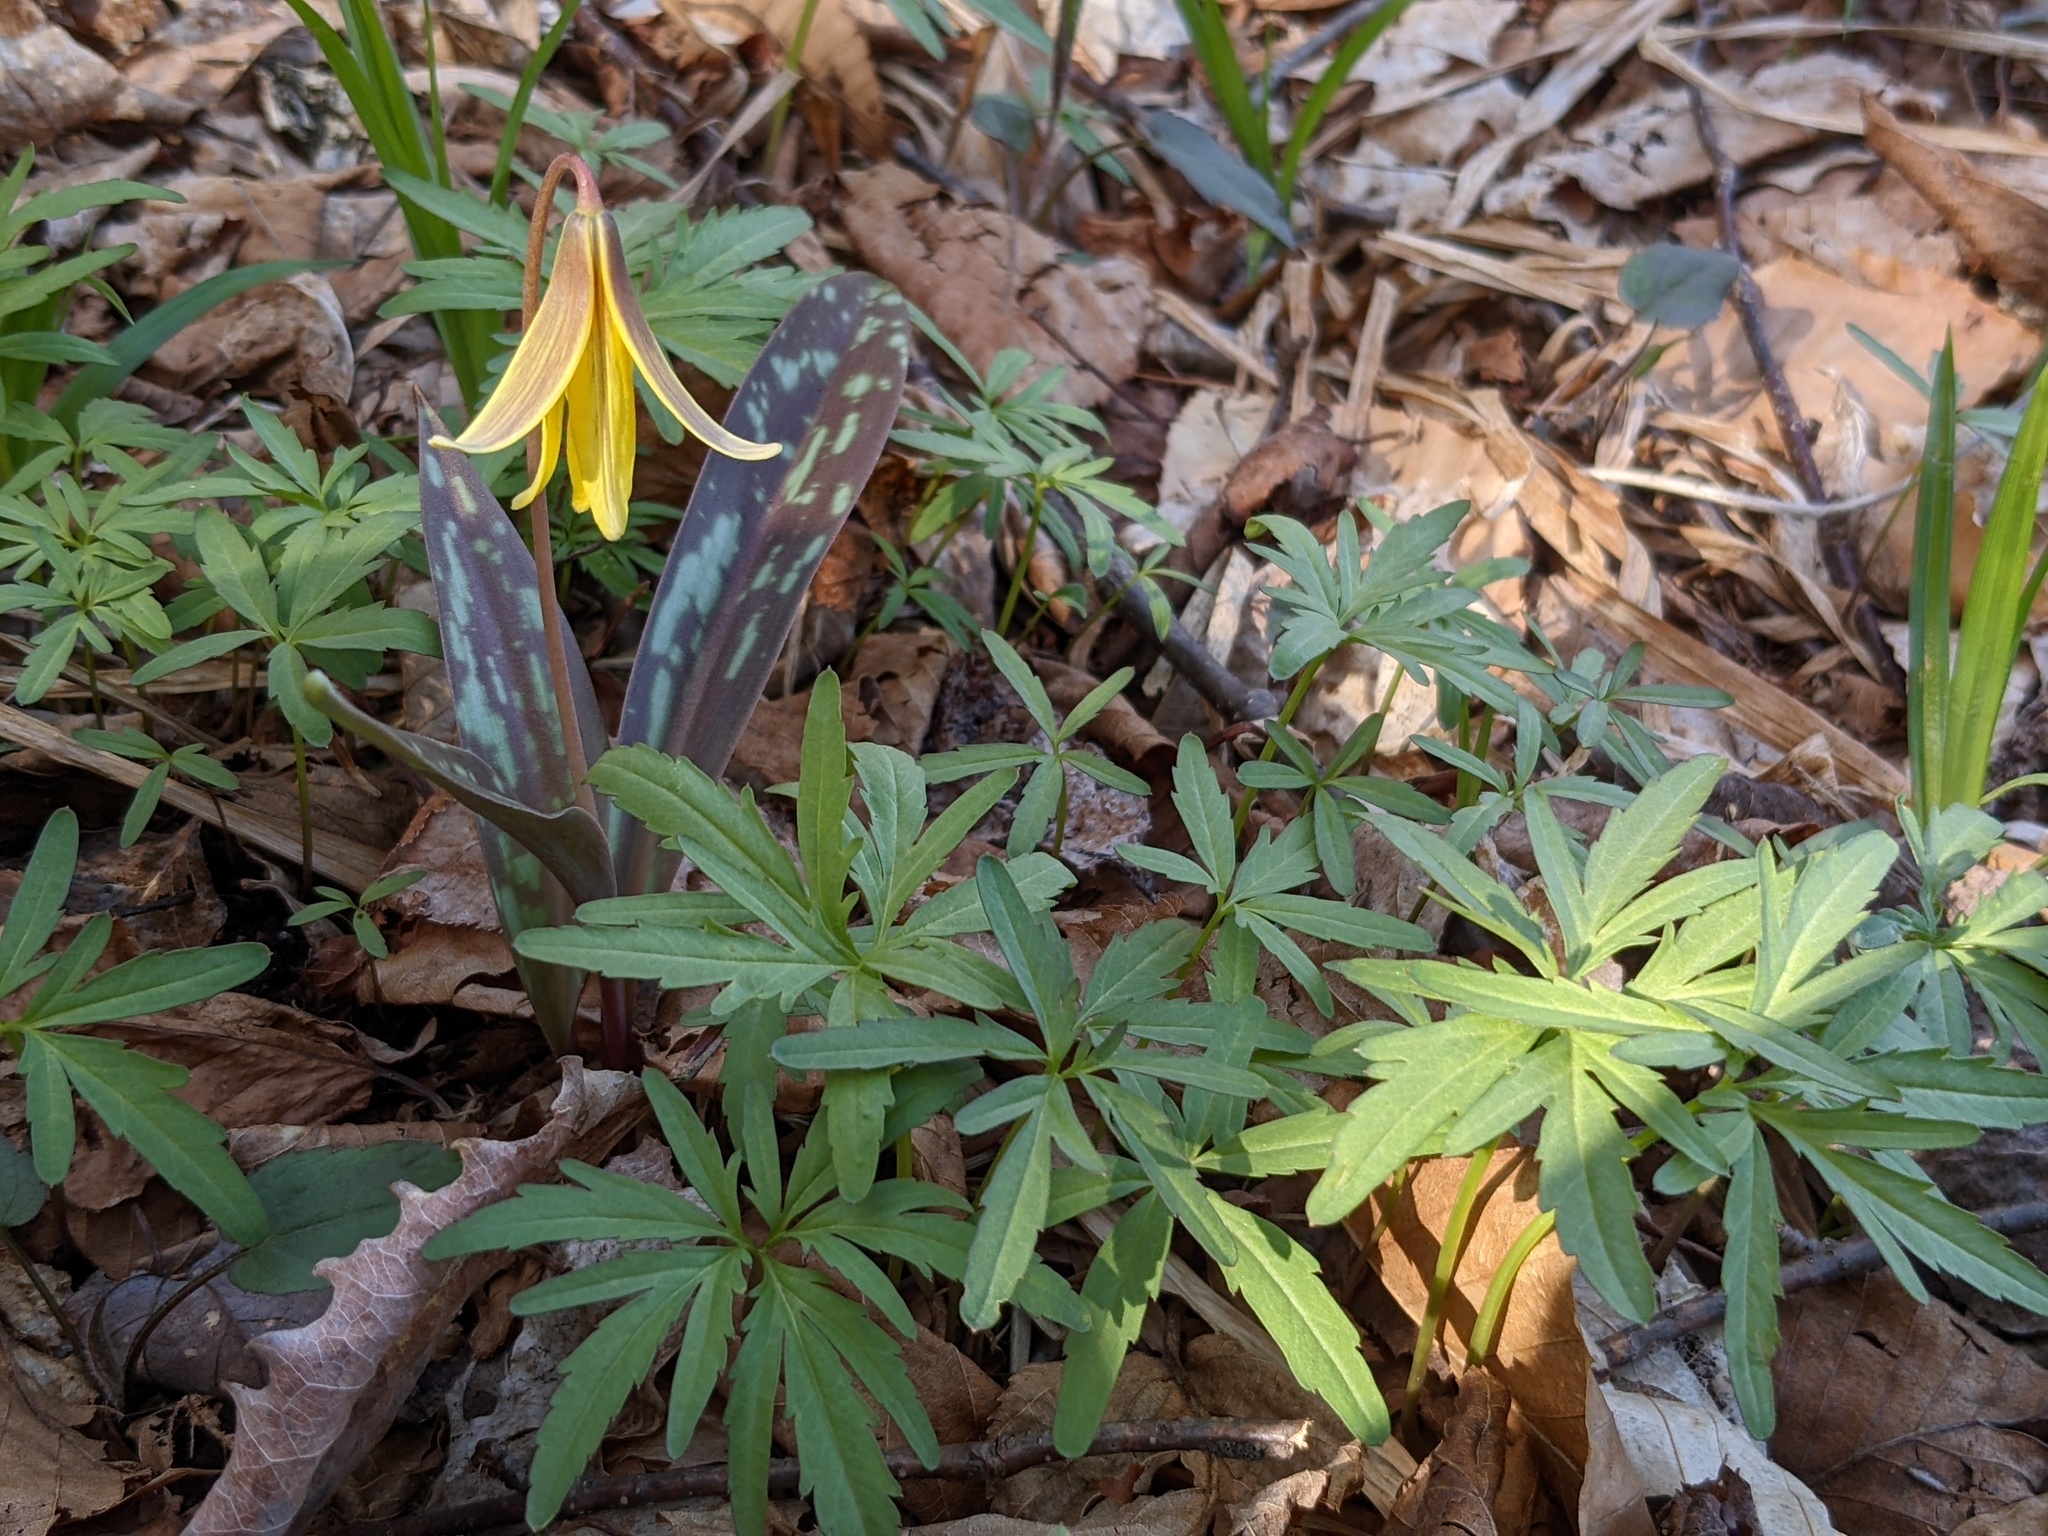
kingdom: Plantae
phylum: Tracheophyta
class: Magnoliopsida
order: Brassicales
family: Brassicaceae
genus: Cardamine
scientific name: Cardamine concatenata
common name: Cut-leaf toothcup
